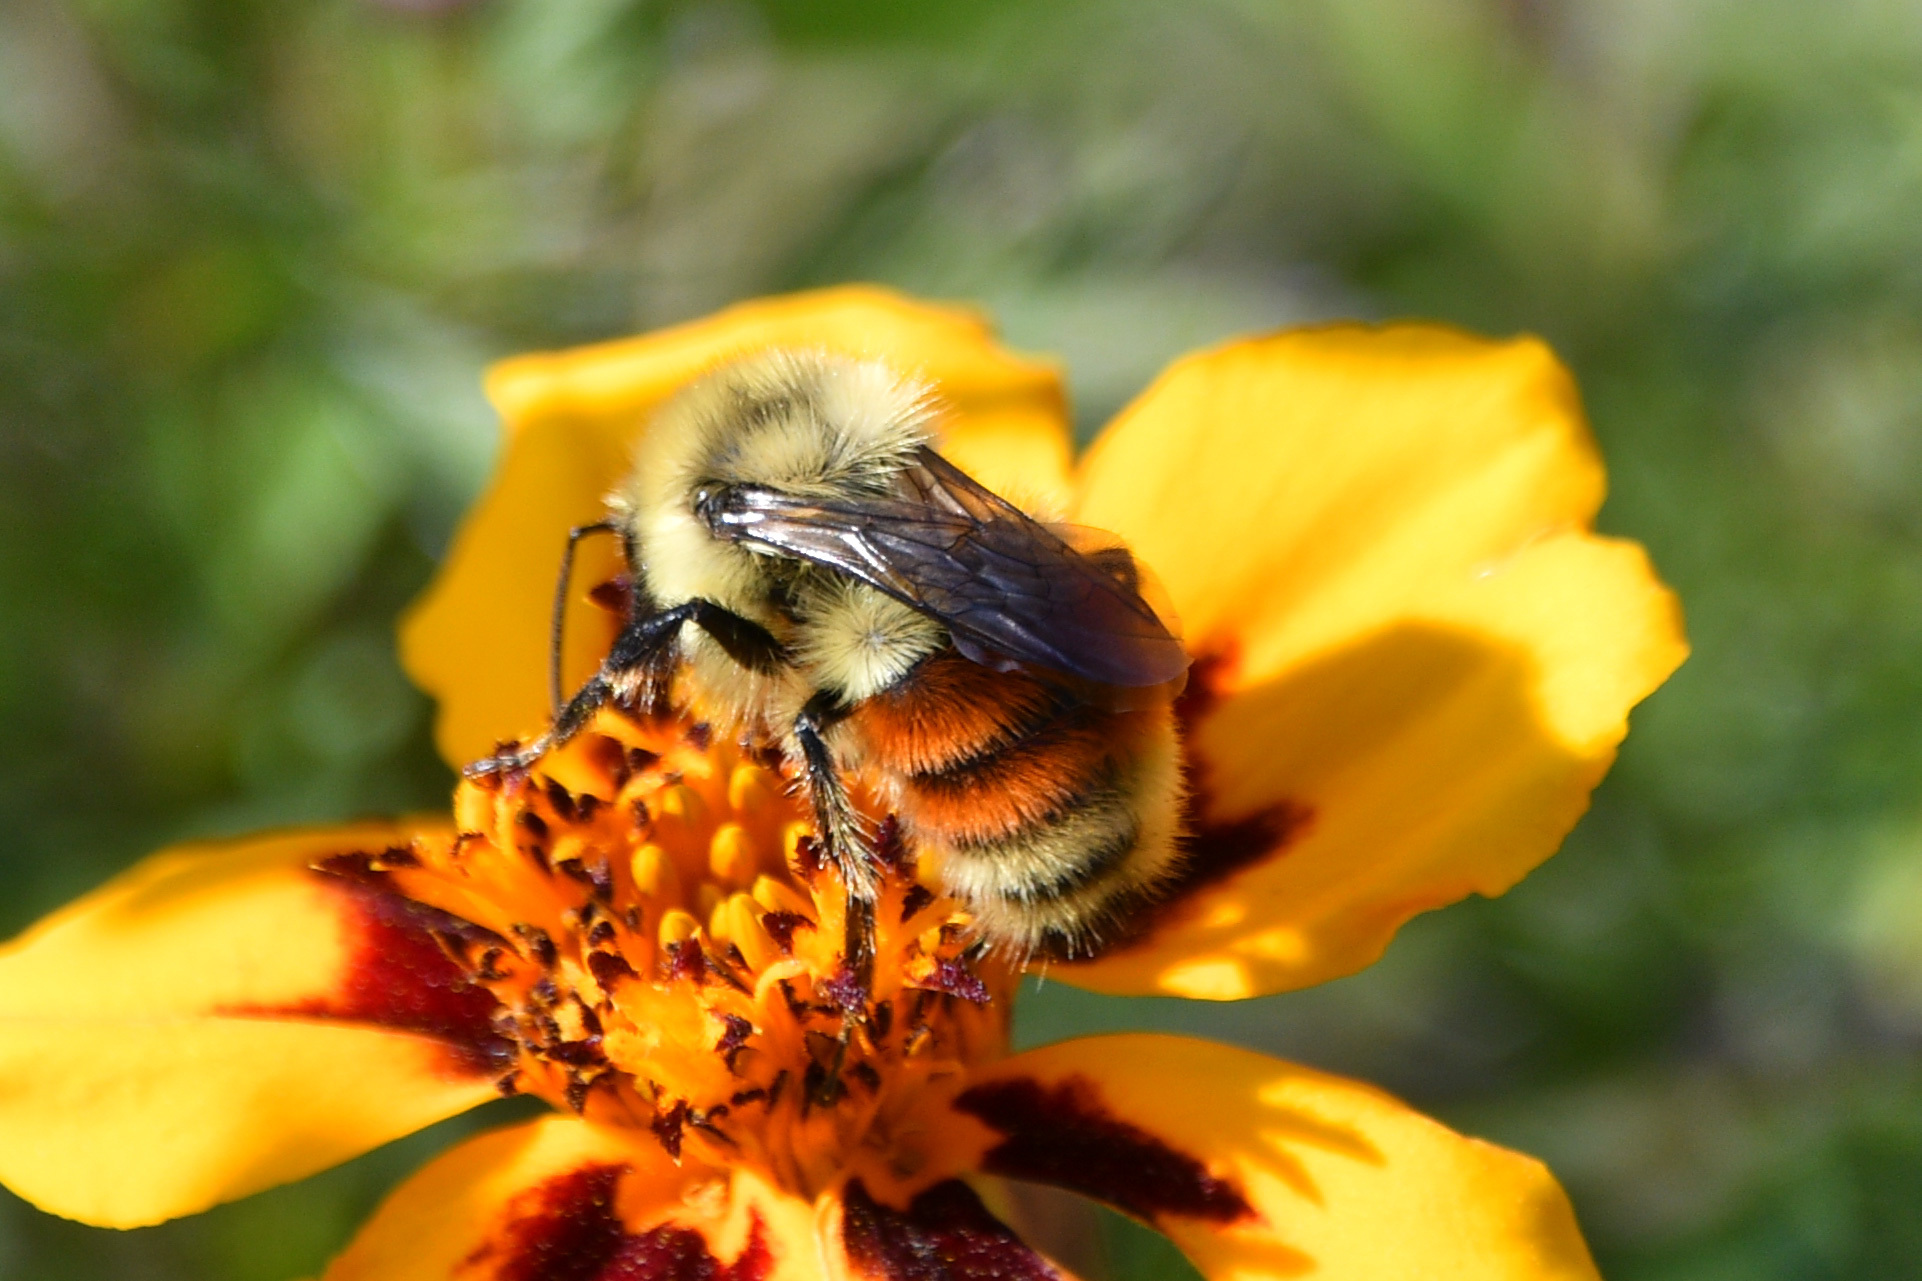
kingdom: Animalia
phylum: Arthropoda
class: Insecta
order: Hymenoptera
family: Apidae
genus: Bombus
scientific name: Bombus huntii
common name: Hunt bumble bee
